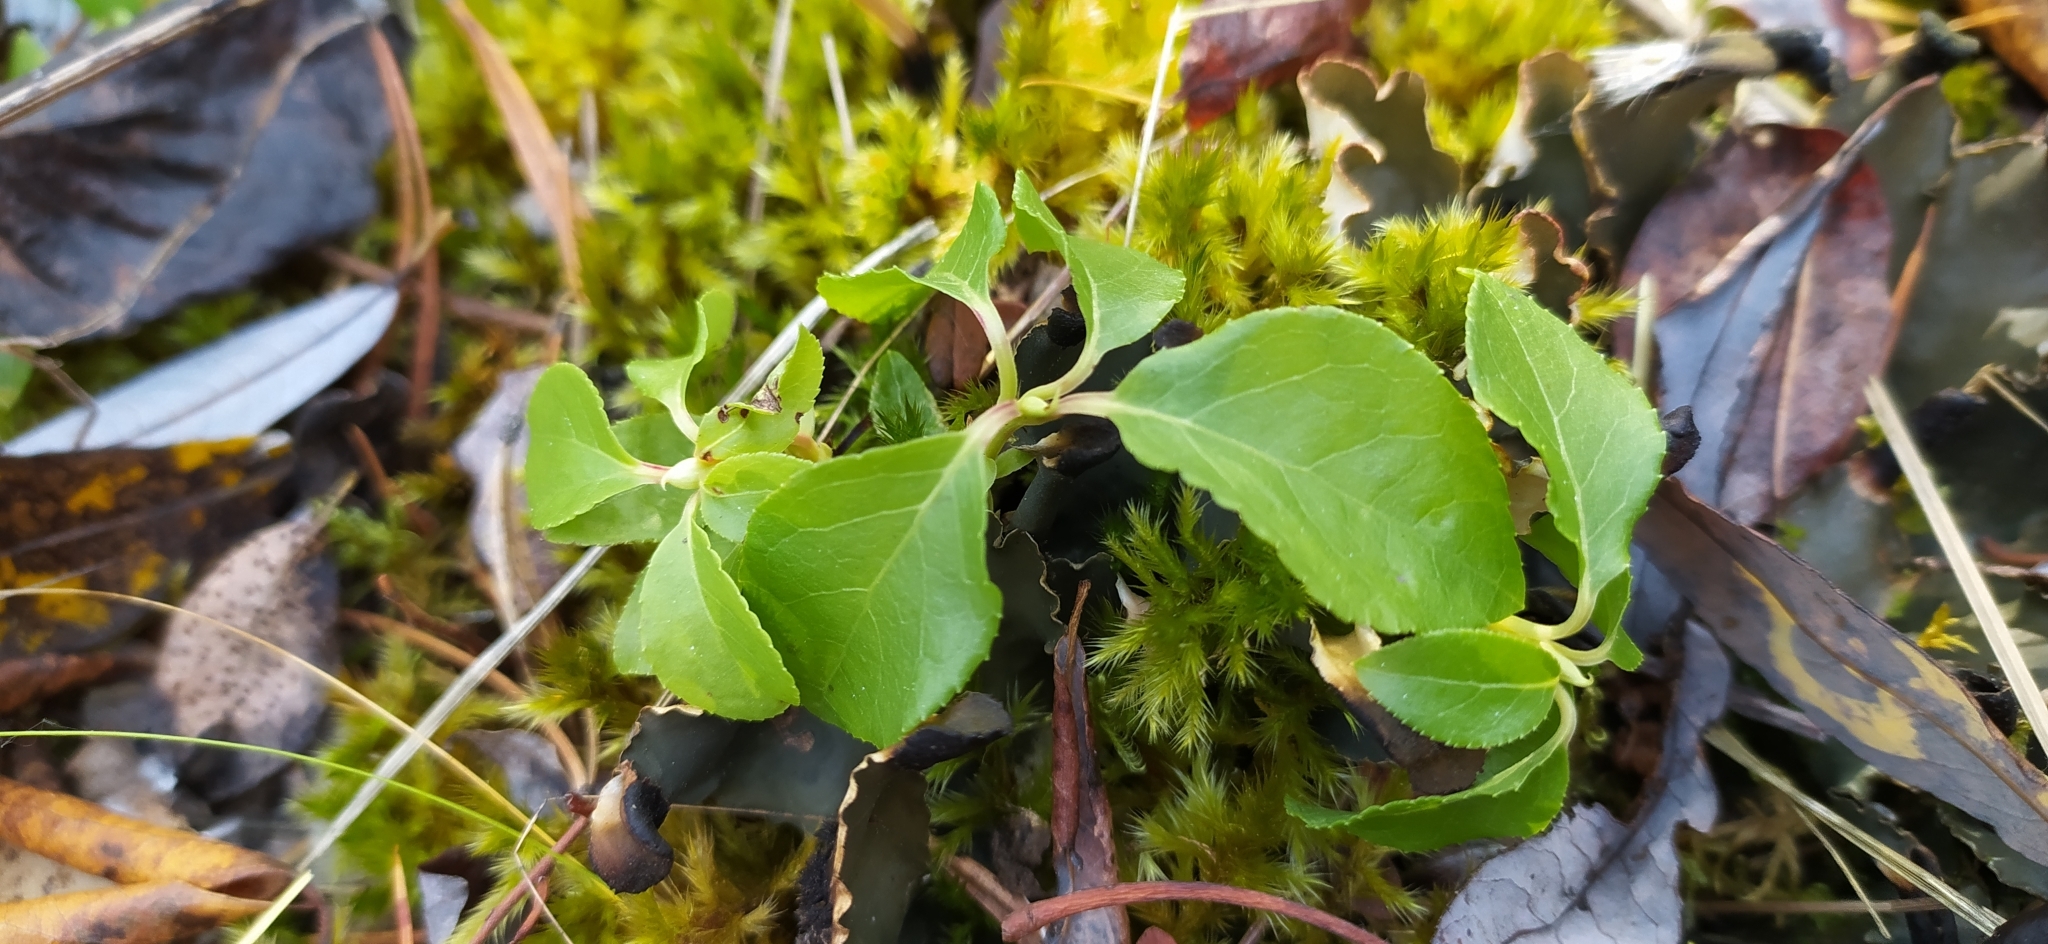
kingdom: Plantae
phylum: Tracheophyta
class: Magnoliopsida
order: Ericales
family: Ericaceae
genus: Orthilia
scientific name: Orthilia secunda
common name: One-sided orthilia
